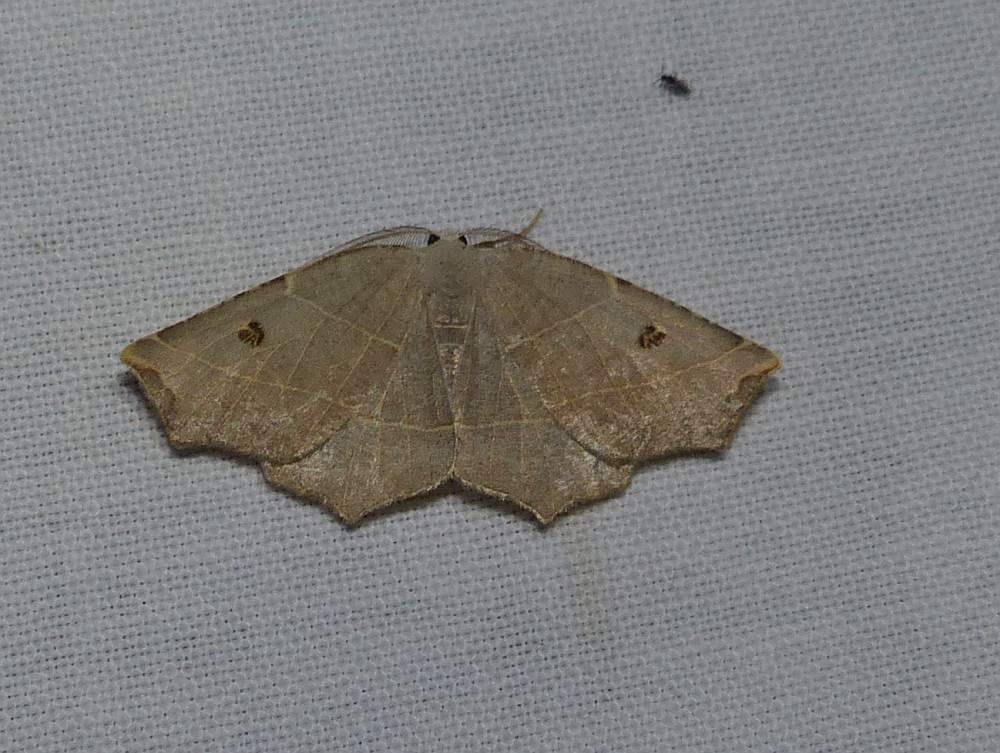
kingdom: Animalia
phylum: Arthropoda
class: Insecta
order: Lepidoptera
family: Geometridae
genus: Metanema
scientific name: Metanema inatomaria
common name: Pale metanema
